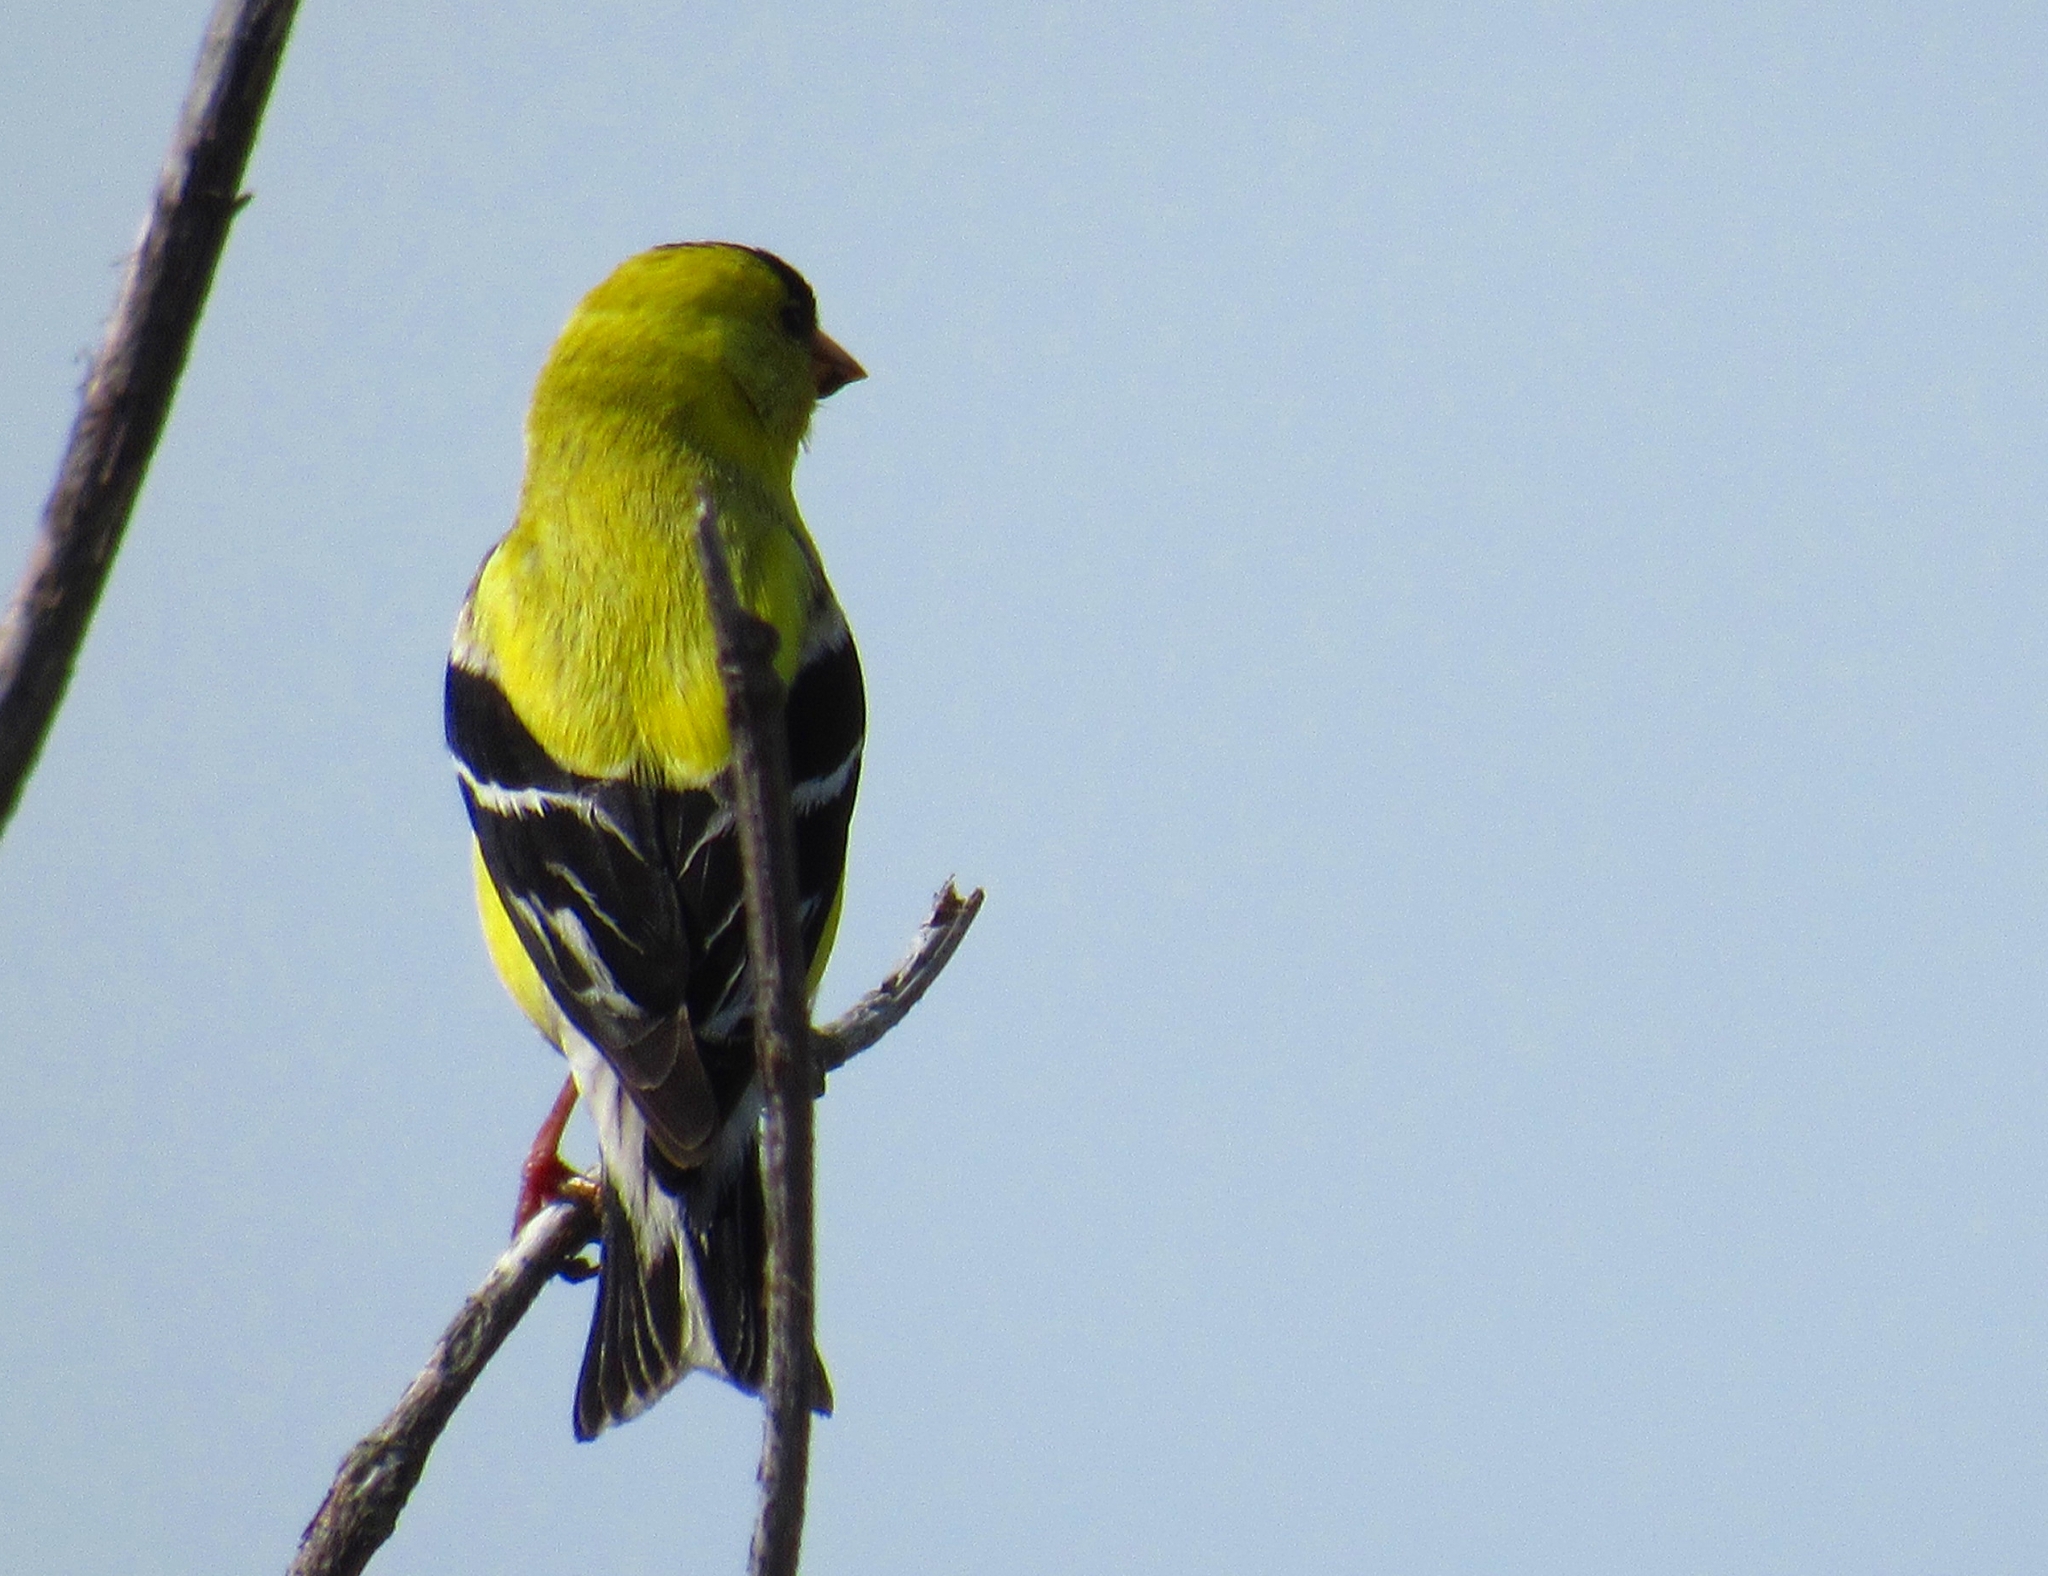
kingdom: Animalia
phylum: Chordata
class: Aves
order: Passeriformes
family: Fringillidae
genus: Spinus
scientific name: Spinus tristis
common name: American goldfinch
